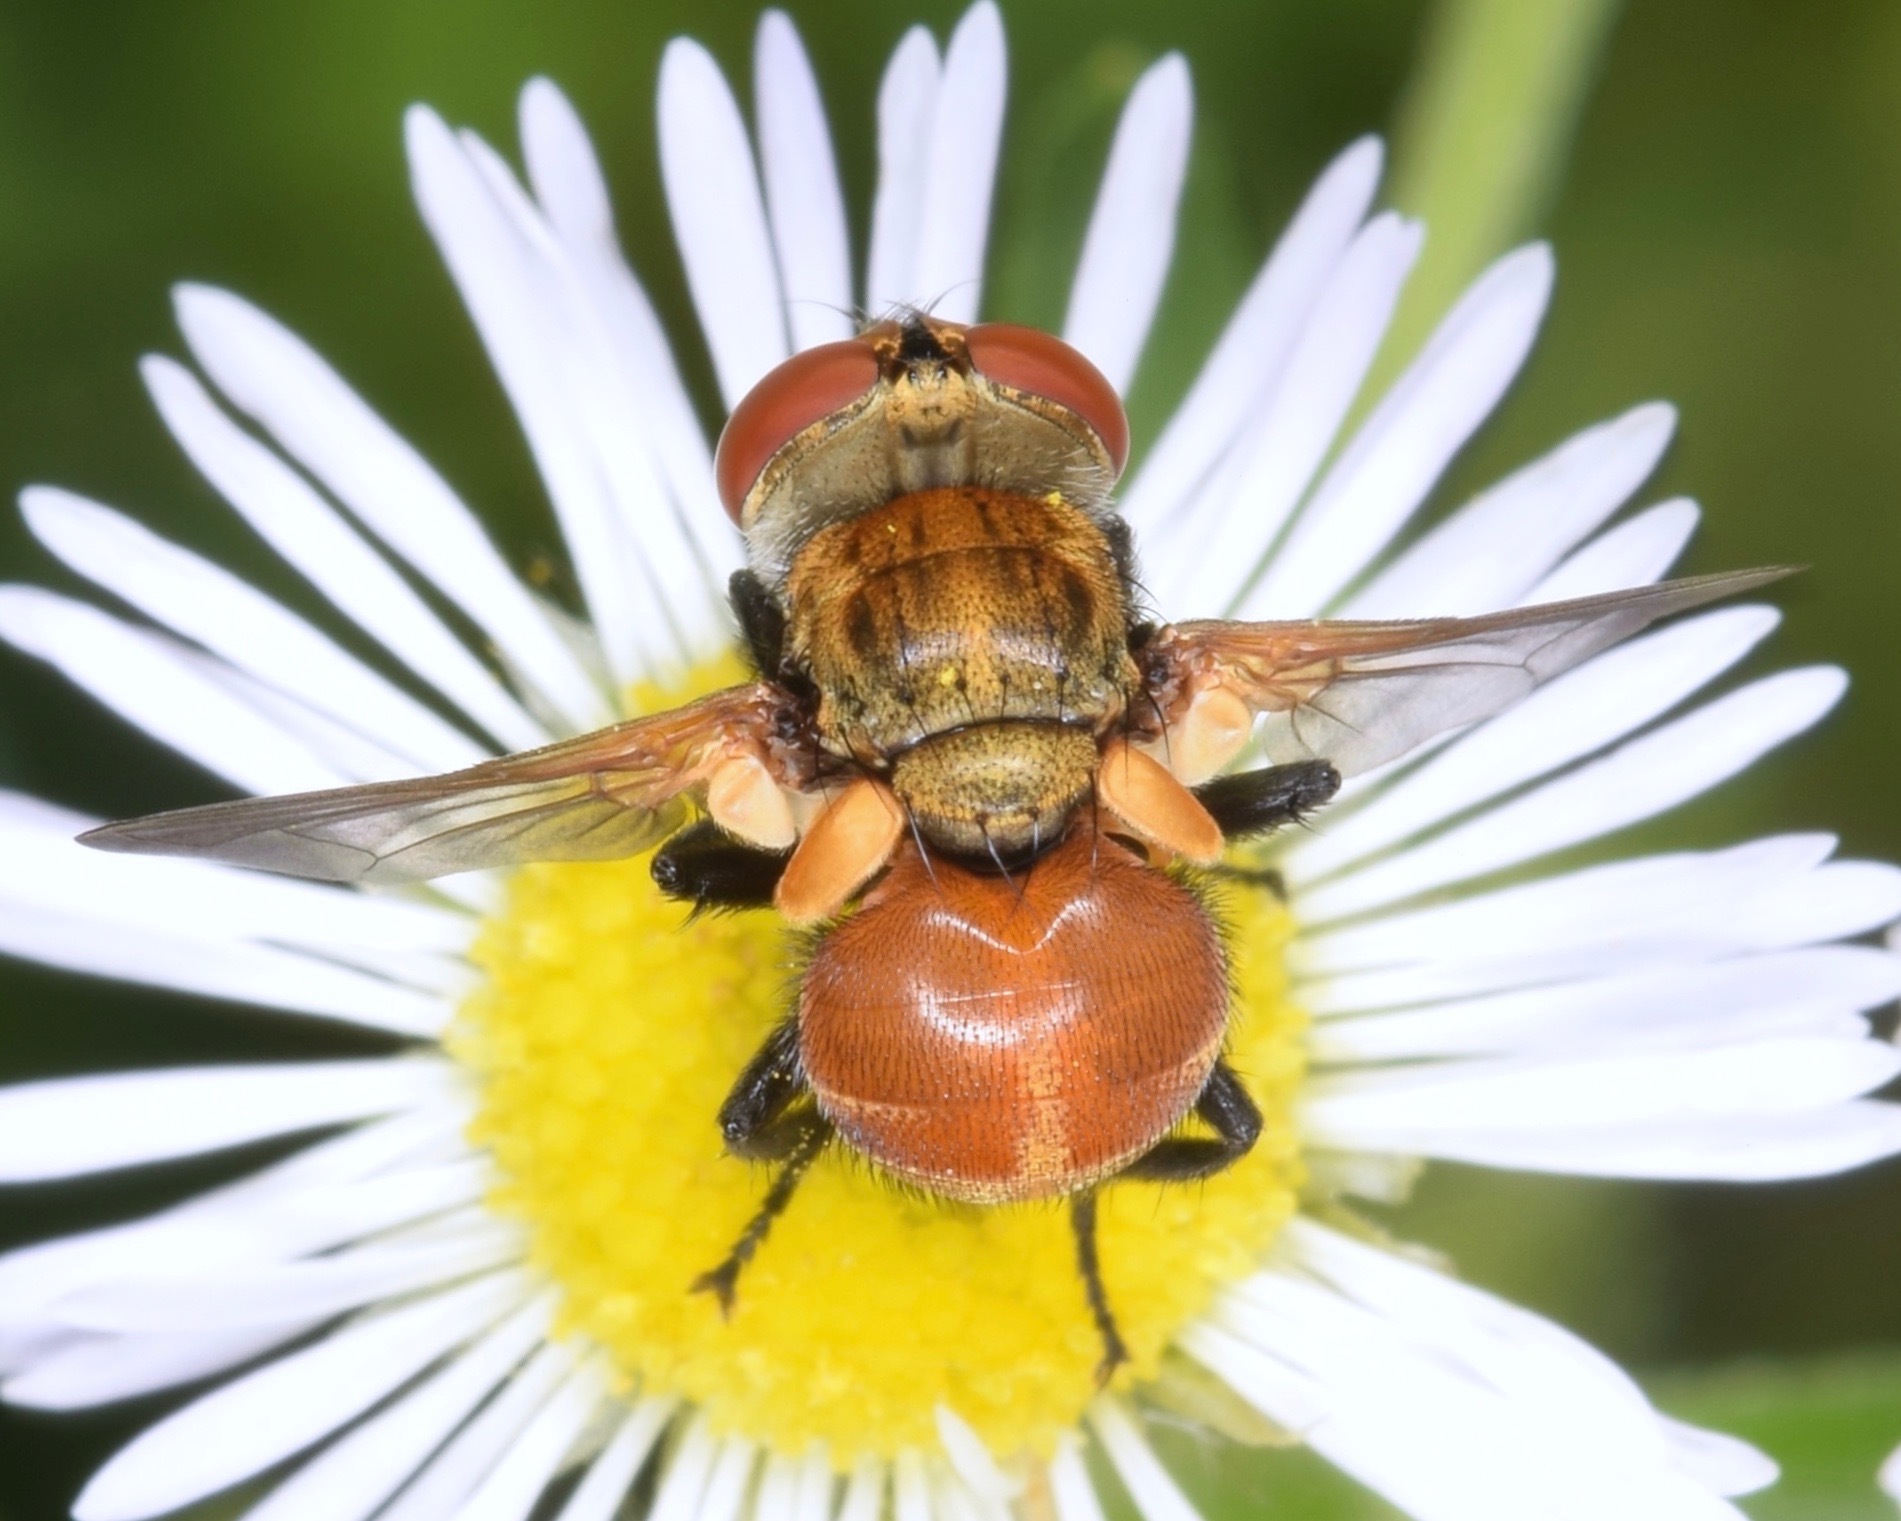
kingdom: Animalia
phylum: Arthropoda
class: Insecta
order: Diptera
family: Tachinidae
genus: Gymnoclytia
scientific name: Gymnoclytia
